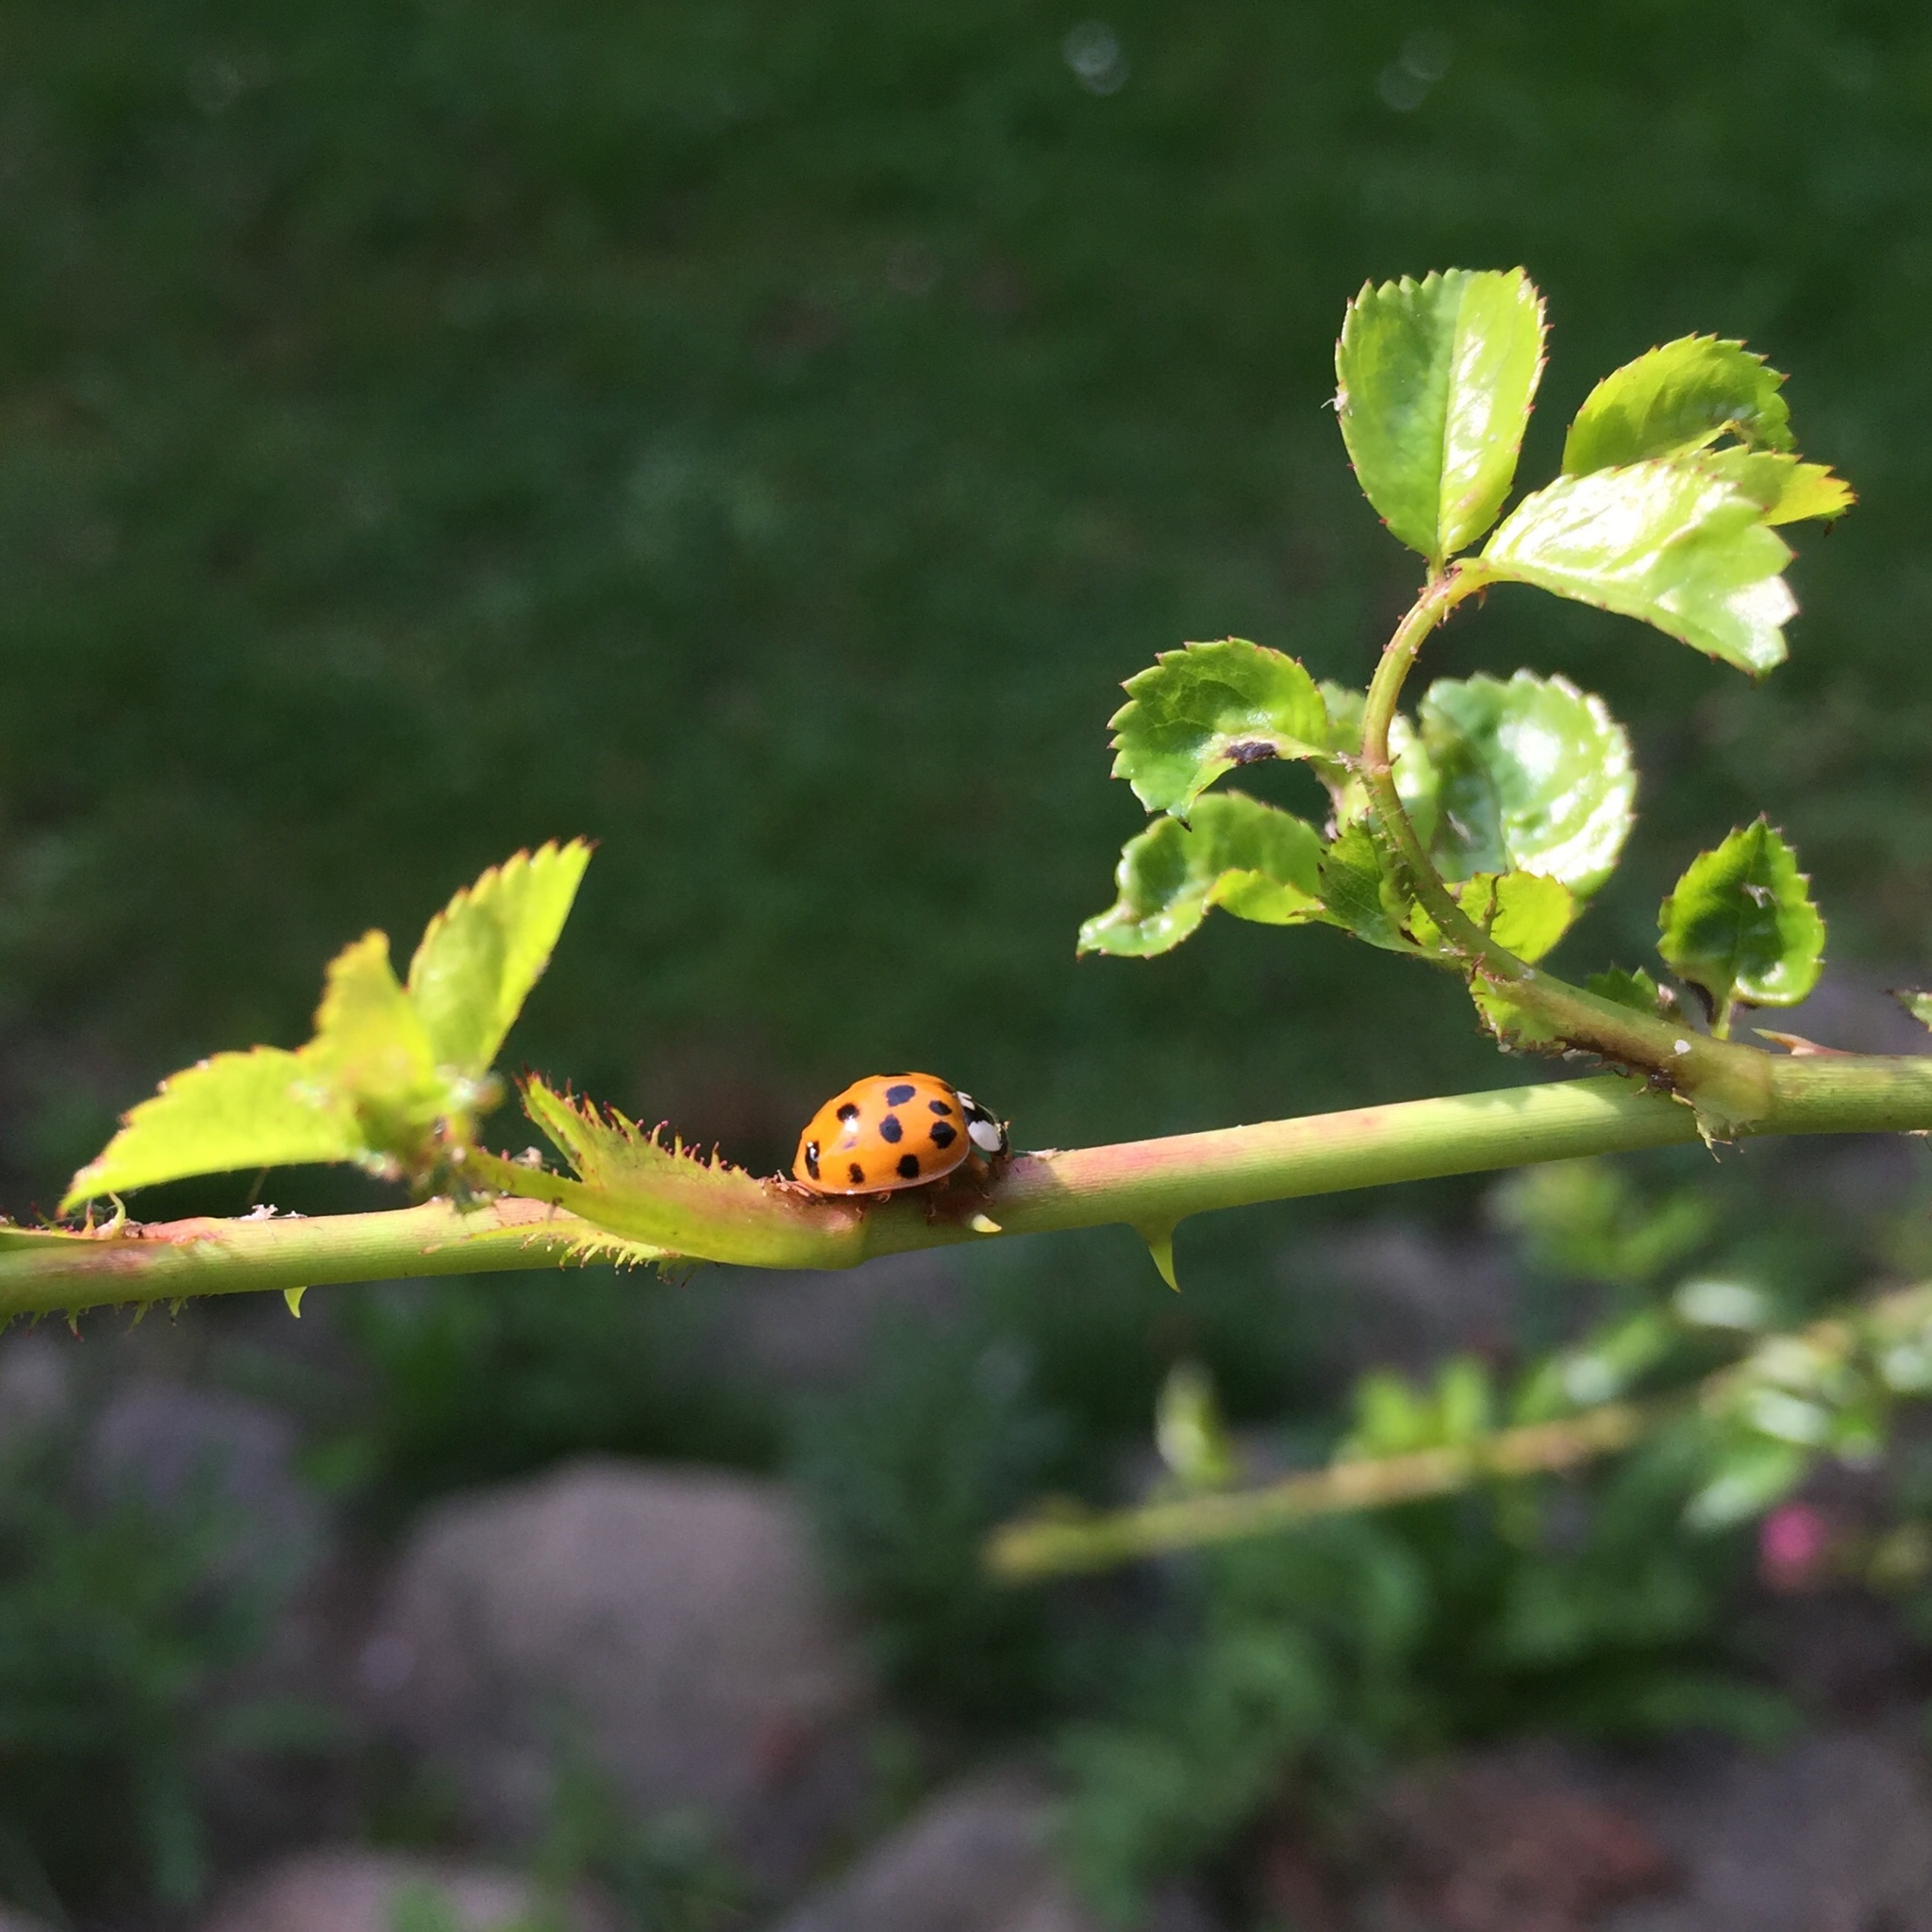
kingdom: Animalia
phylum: Arthropoda
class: Insecta
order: Coleoptera
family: Coccinellidae
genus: Harmonia
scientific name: Harmonia axyridis
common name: Harlequin ladybird
